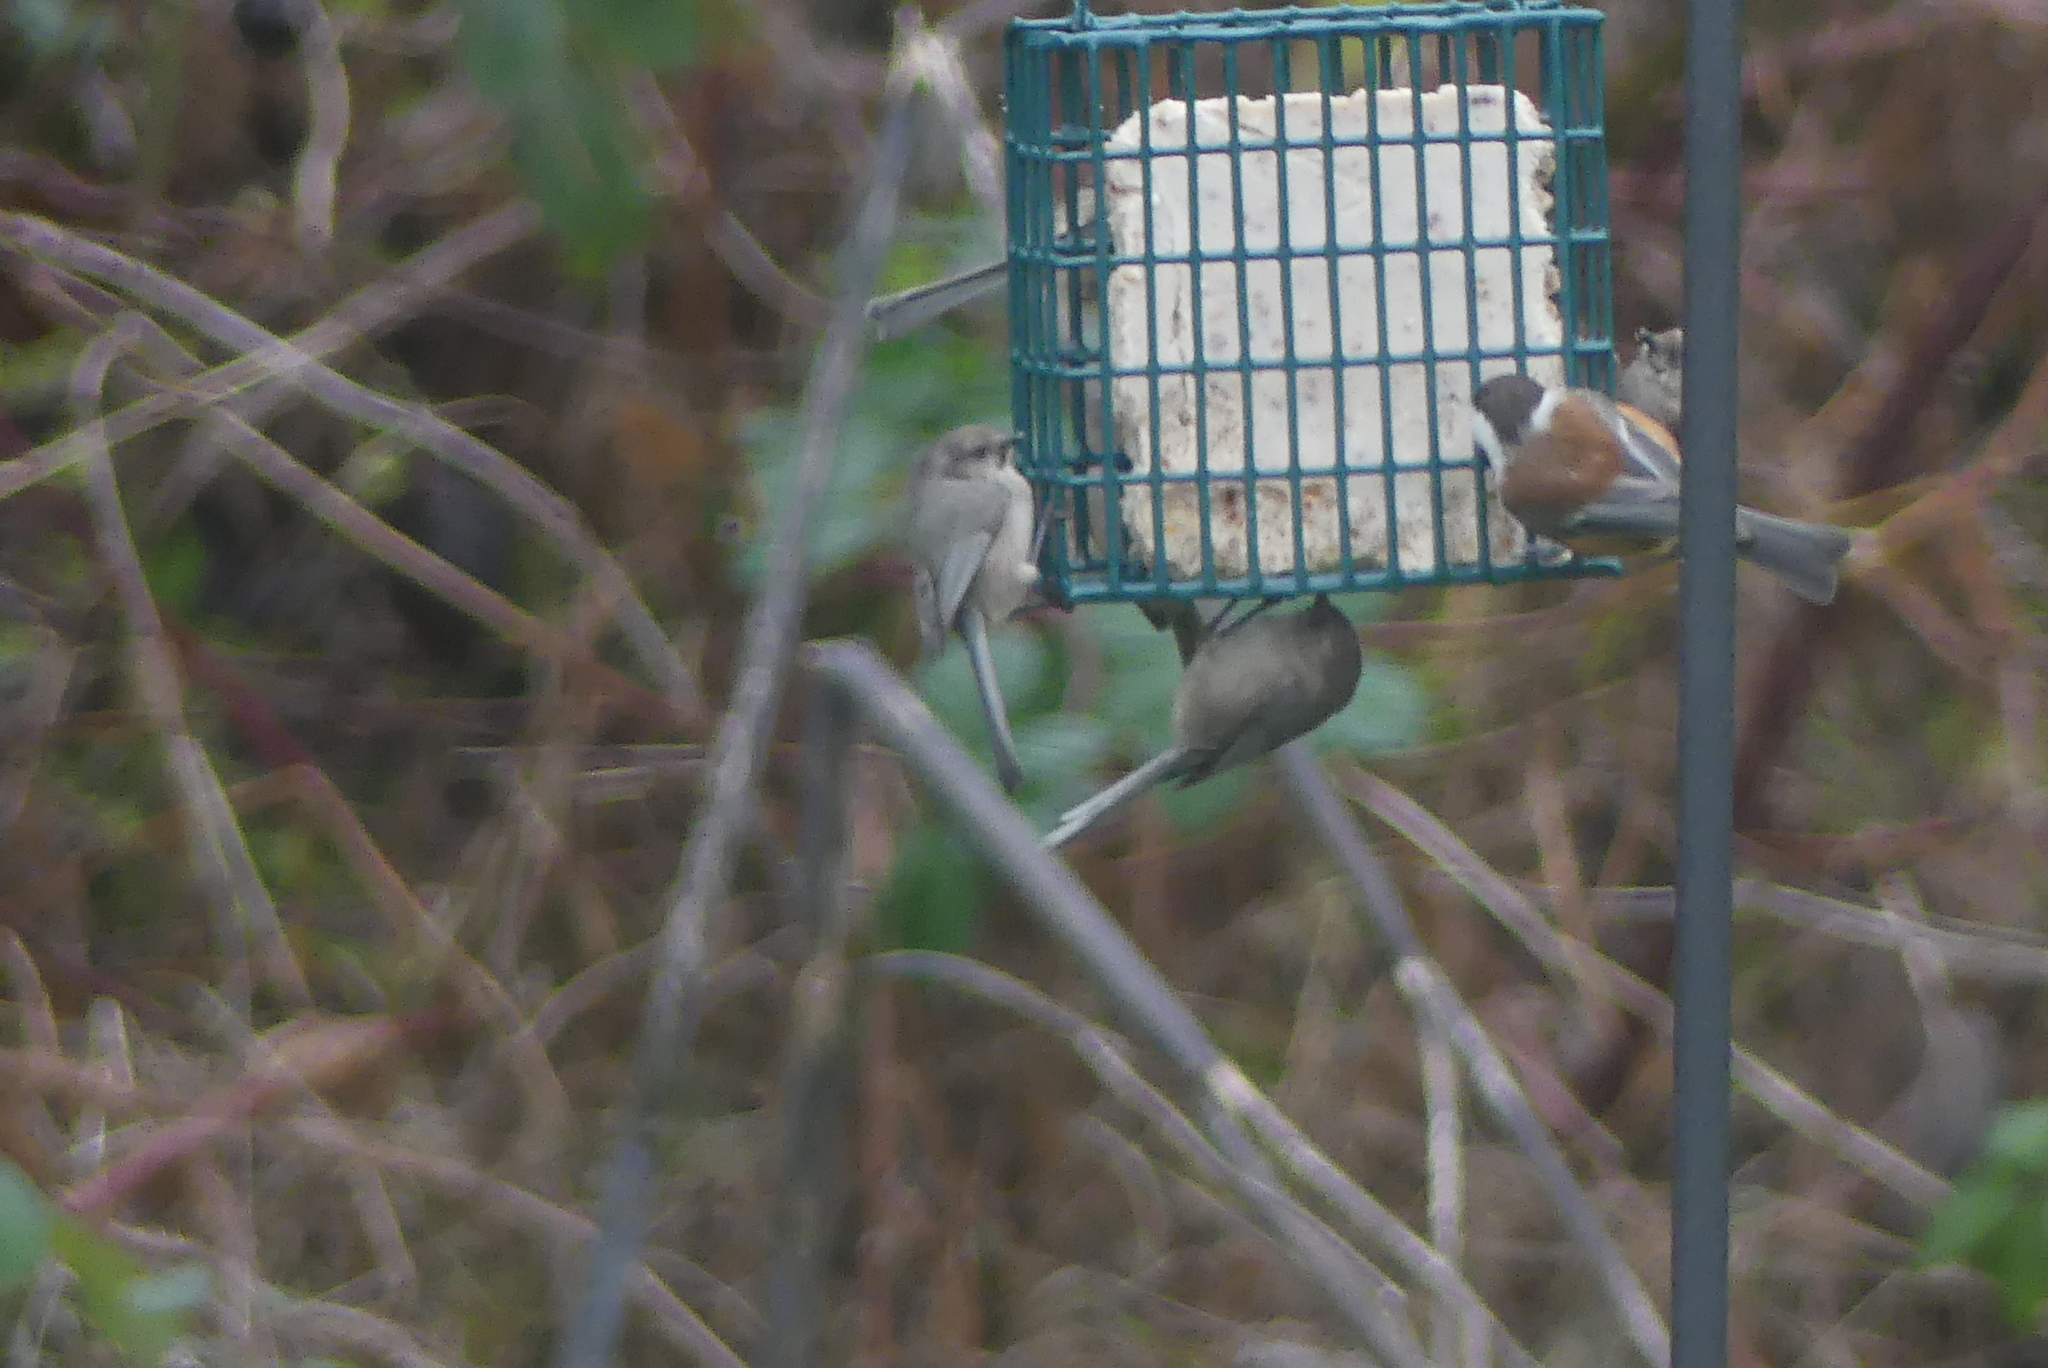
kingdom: Animalia
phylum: Chordata
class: Aves
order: Passeriformes
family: Aegithalidae
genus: Psaltriparus
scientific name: Psaltriparus minimus
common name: American bushtit
